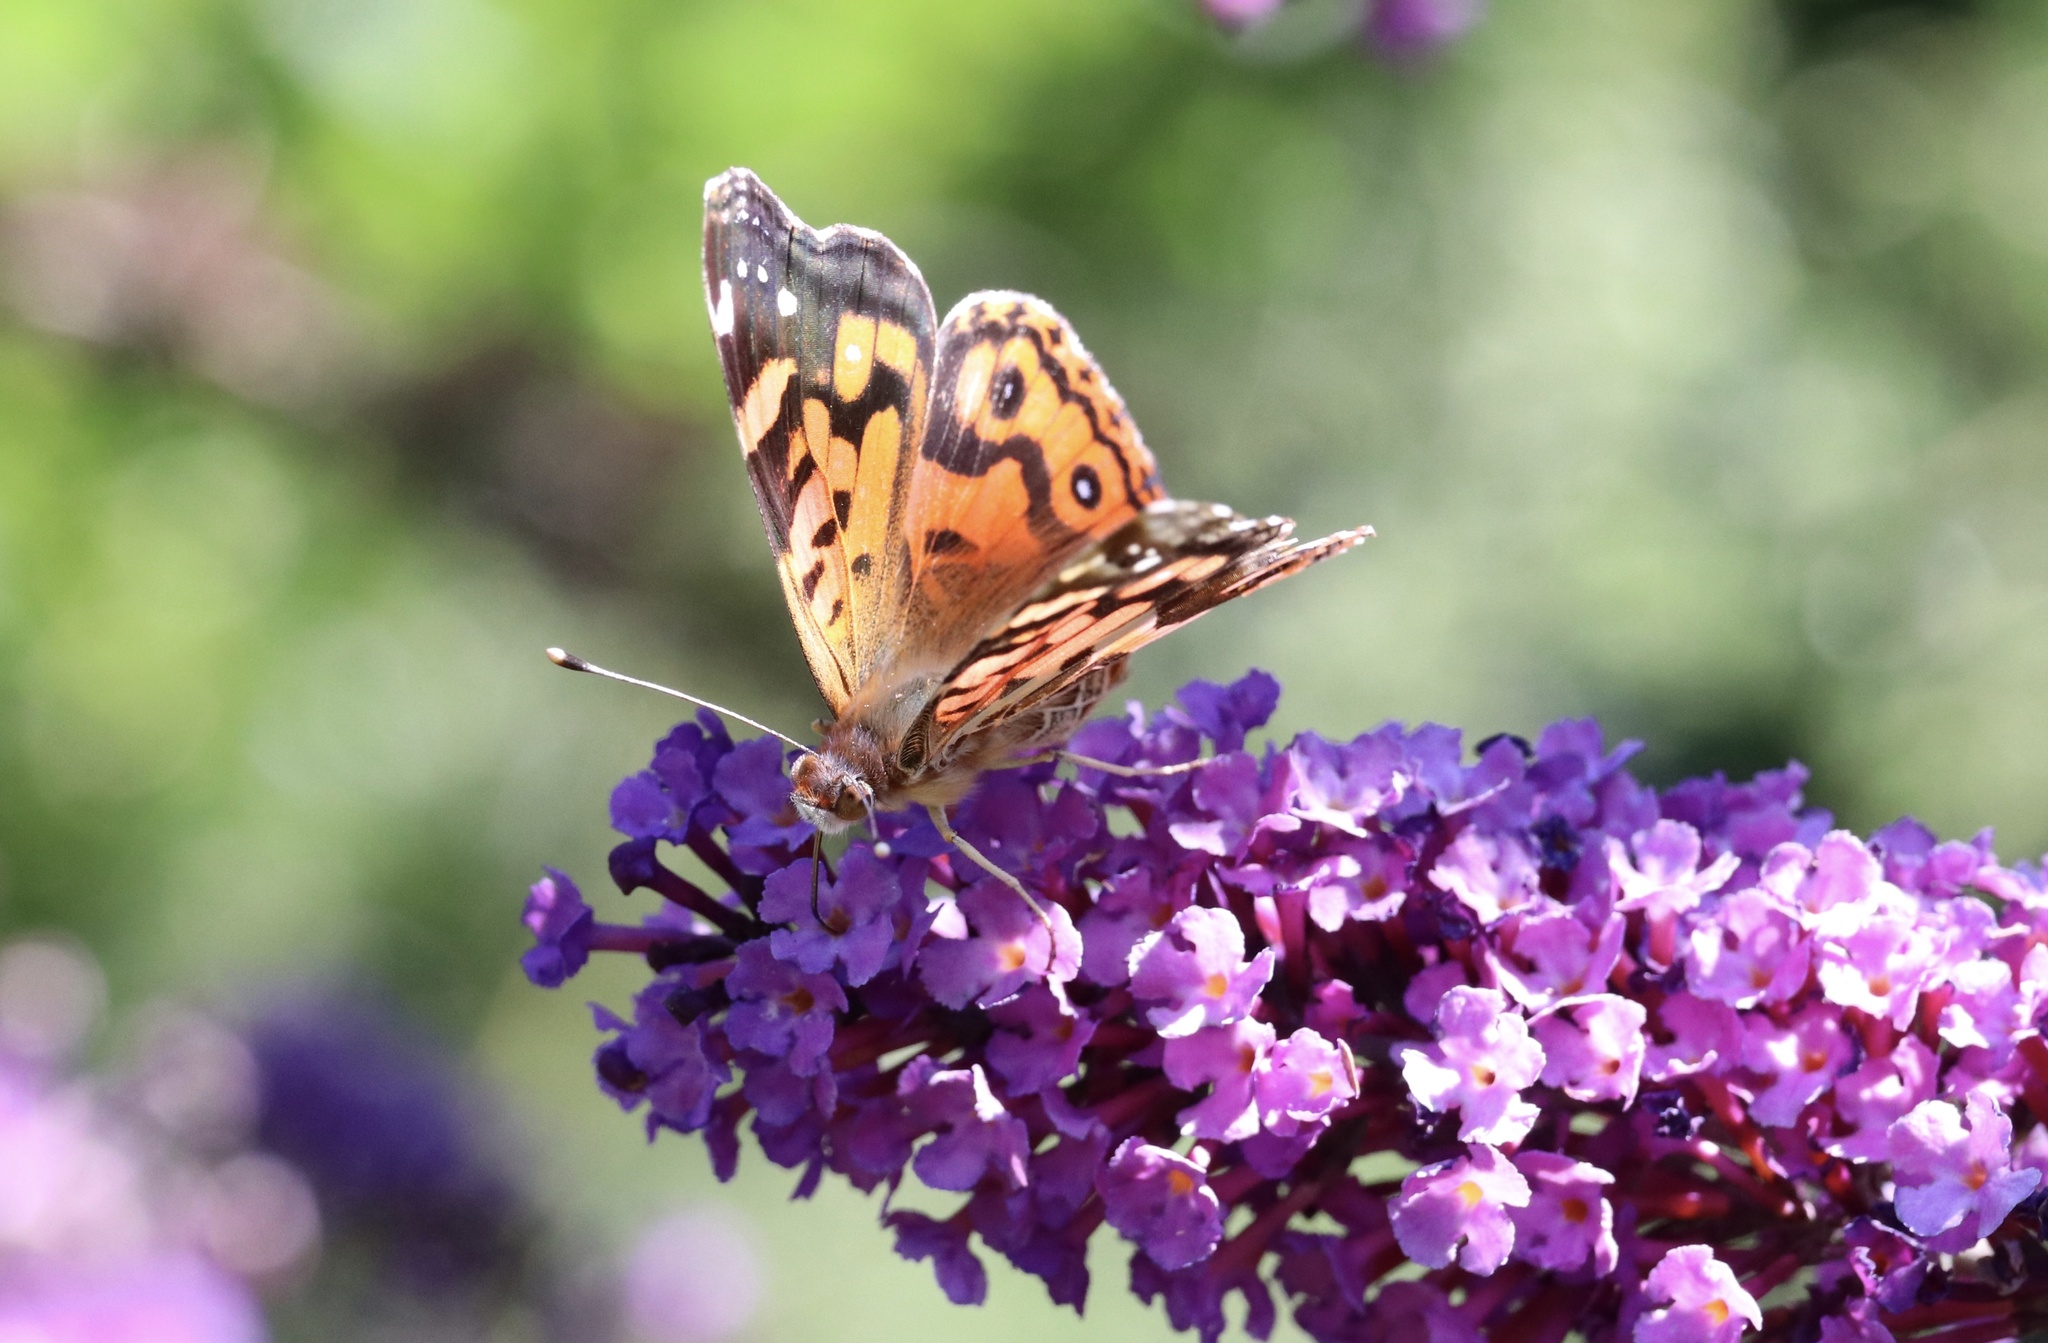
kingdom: Animalia
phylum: Arthropoda
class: Insecta
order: Lepidoptera
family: Nymphalidae
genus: Vanessa
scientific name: Vanessa terpsichore
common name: Chilean lady
